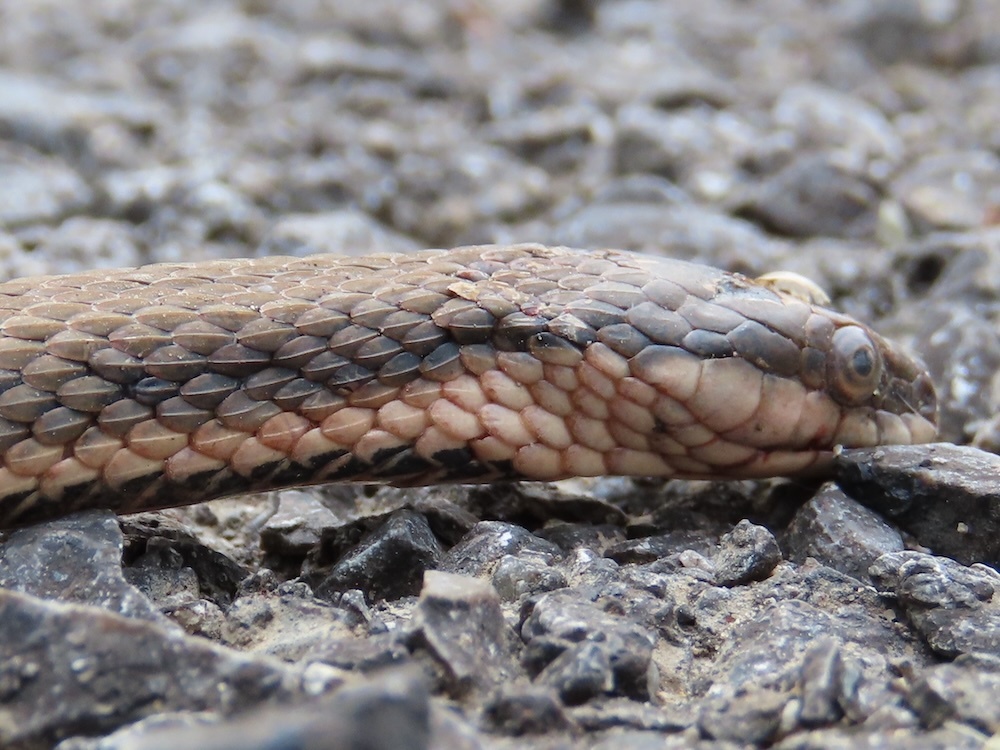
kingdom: Animalia
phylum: Chordata
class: Squamata
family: Colubridae
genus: Regina
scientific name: Regina septemvittata
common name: Queen snake
